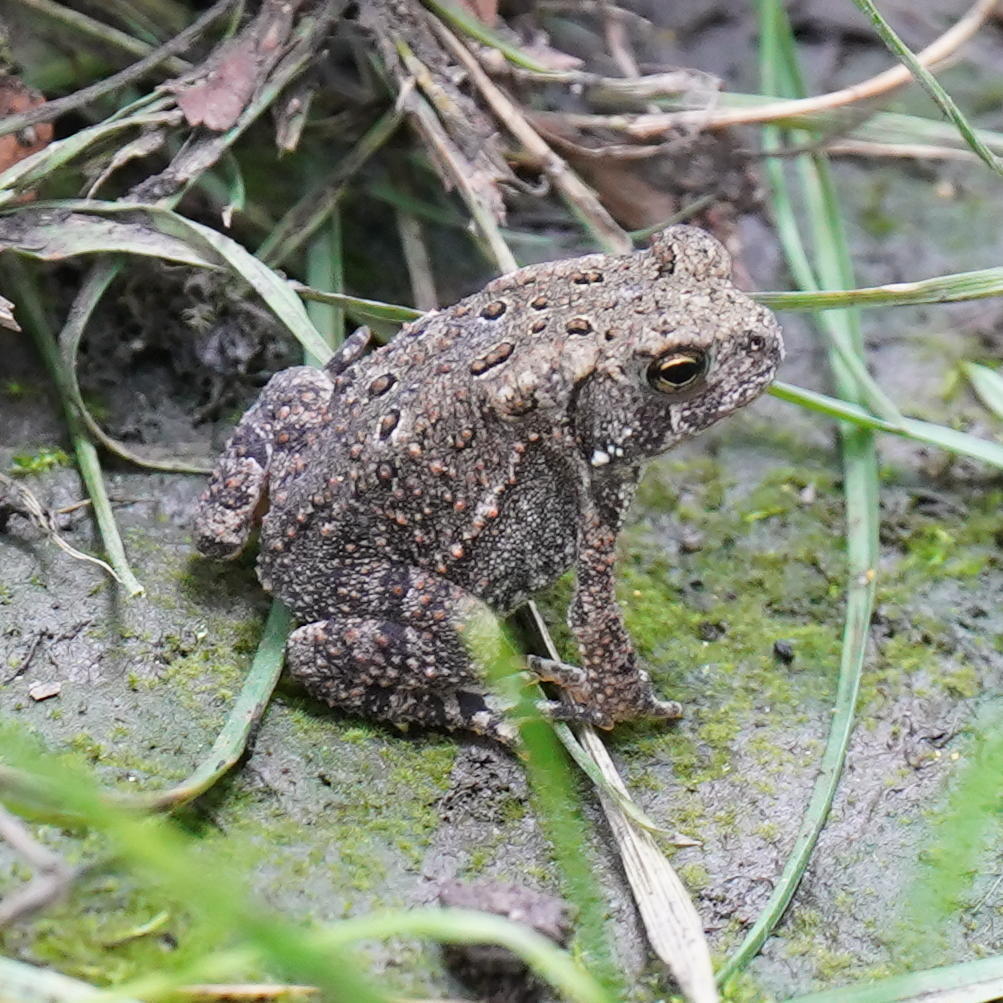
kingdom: Animalia
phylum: Chordata
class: Amphibia
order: Anura
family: Bufonidae
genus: Anaxyrus
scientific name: Anaxyrus americanus
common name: American toad
